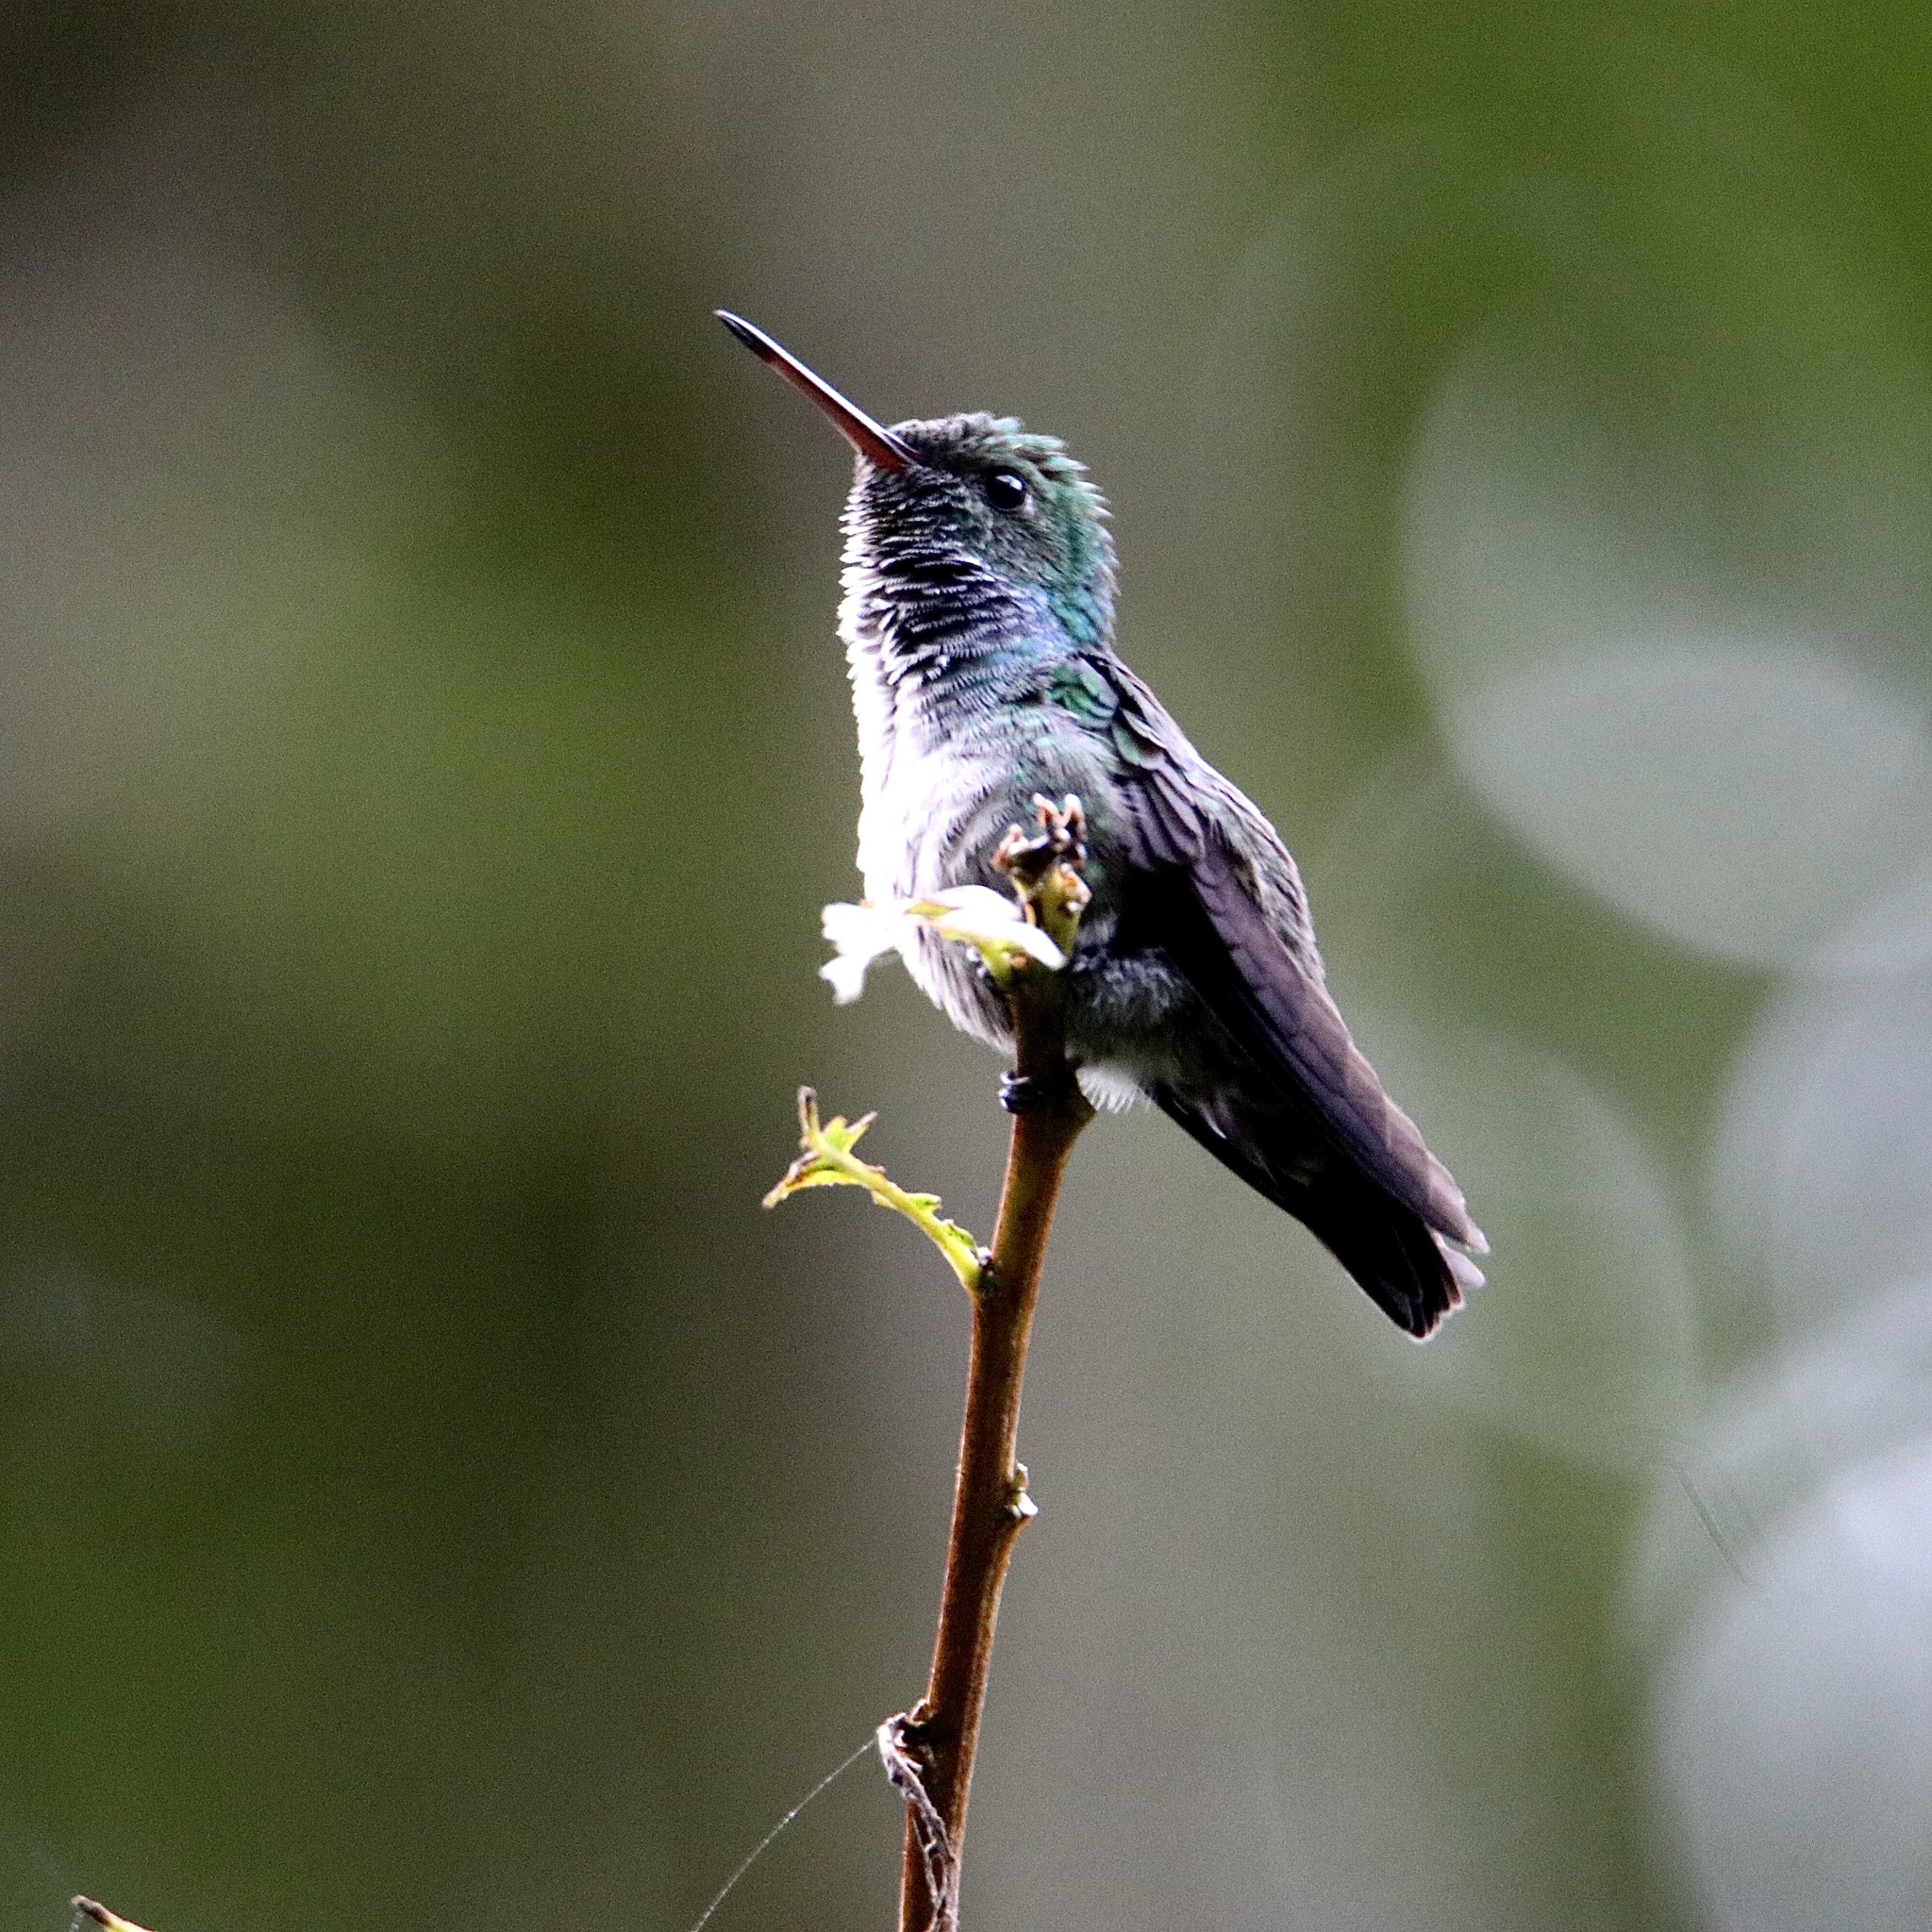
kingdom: Animalia
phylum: Chordata
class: Aves
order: Apodiformes
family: Trochilidae
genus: Polyerata
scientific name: Polyerata amabilis
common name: Blue-chested hummingbird
